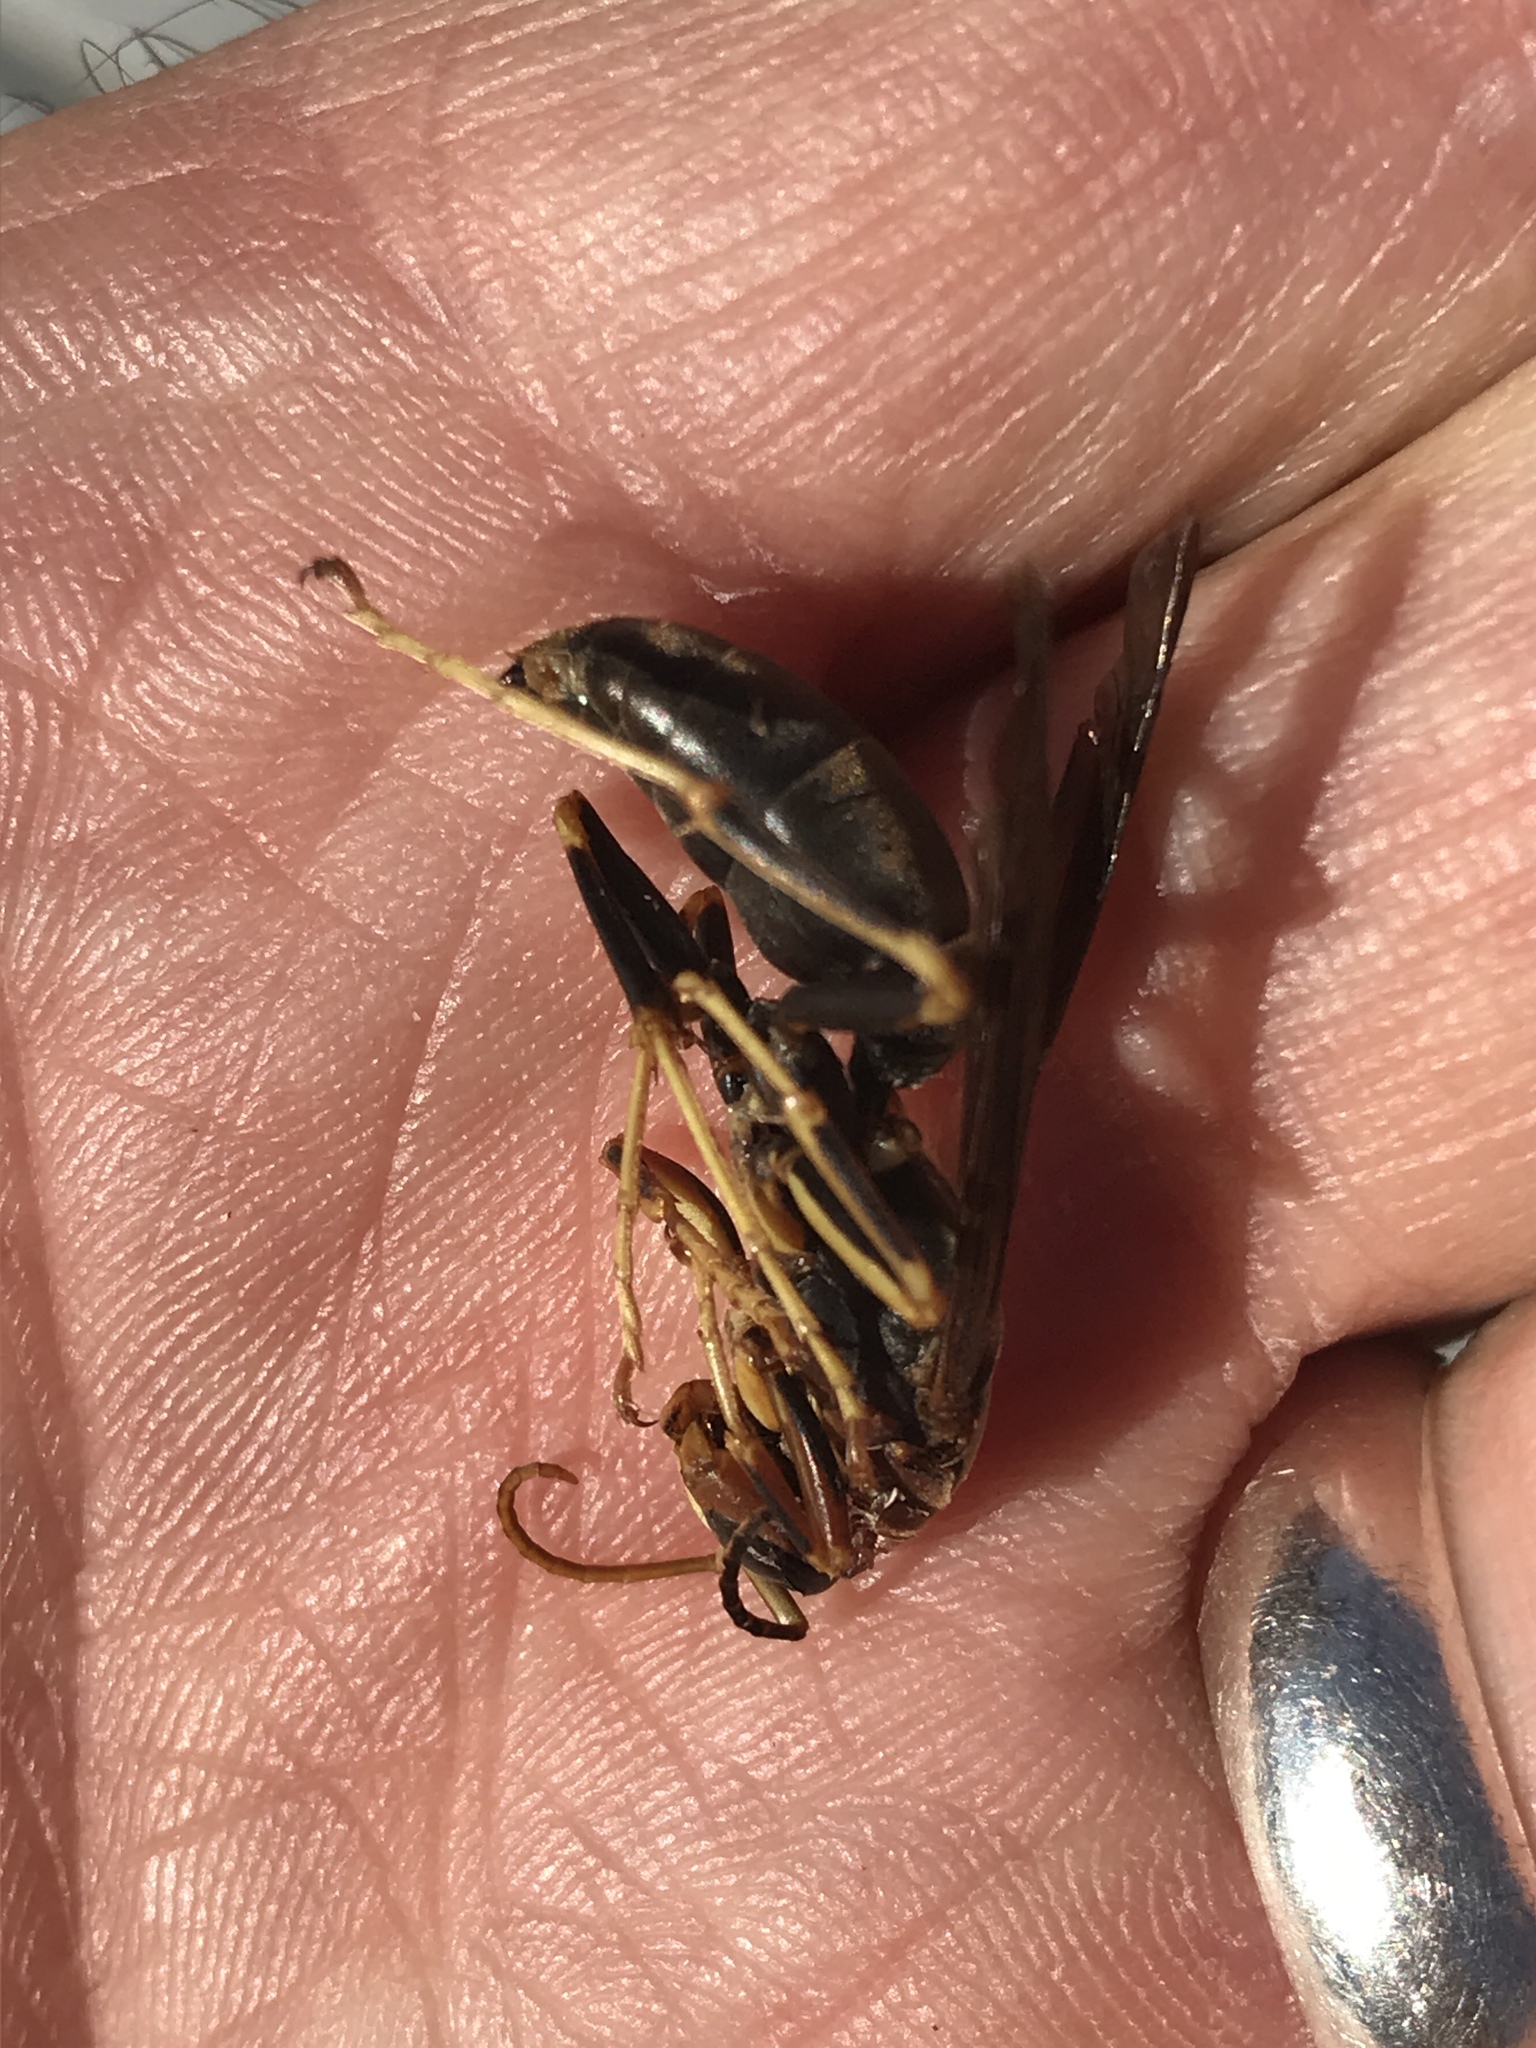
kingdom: Animalia
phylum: Arthropoda
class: Insecta
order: Hymenoptera
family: Eumenidae
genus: Polistes
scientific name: Polistes metricus
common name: Metric paper wasp
